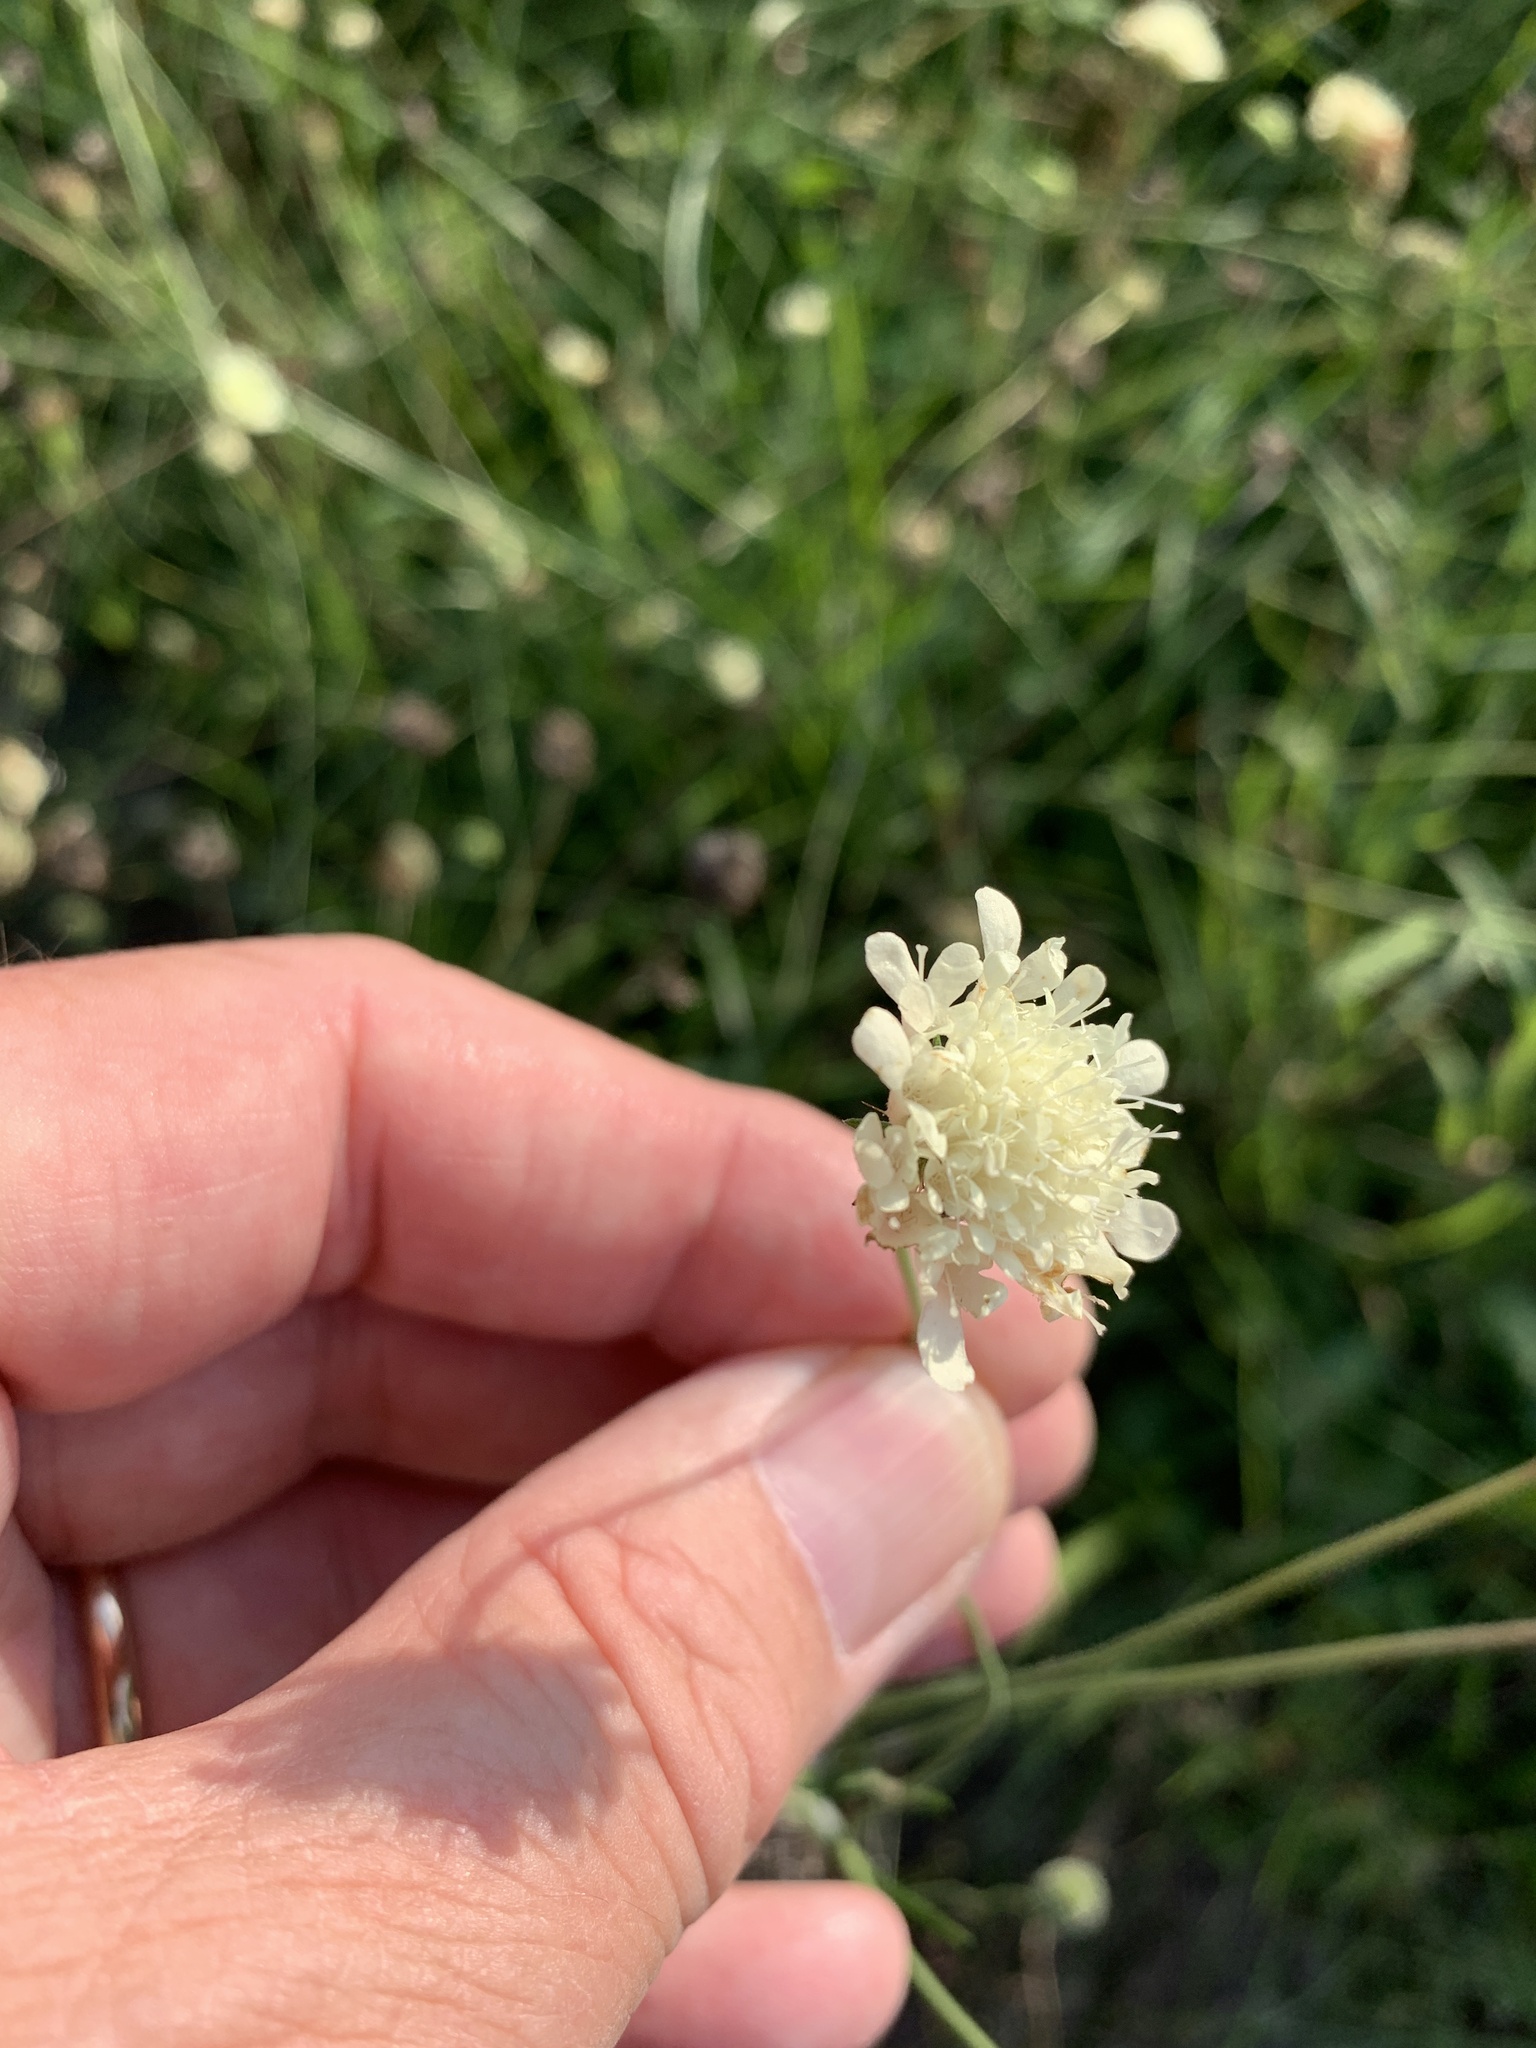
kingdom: Plantae
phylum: Tracheophyta
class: Magnoliopsida
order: Dipsacales
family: Caprifoliaceae
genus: Scabiosa
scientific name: Scabiosa ochroleuca
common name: Cream pincushions
